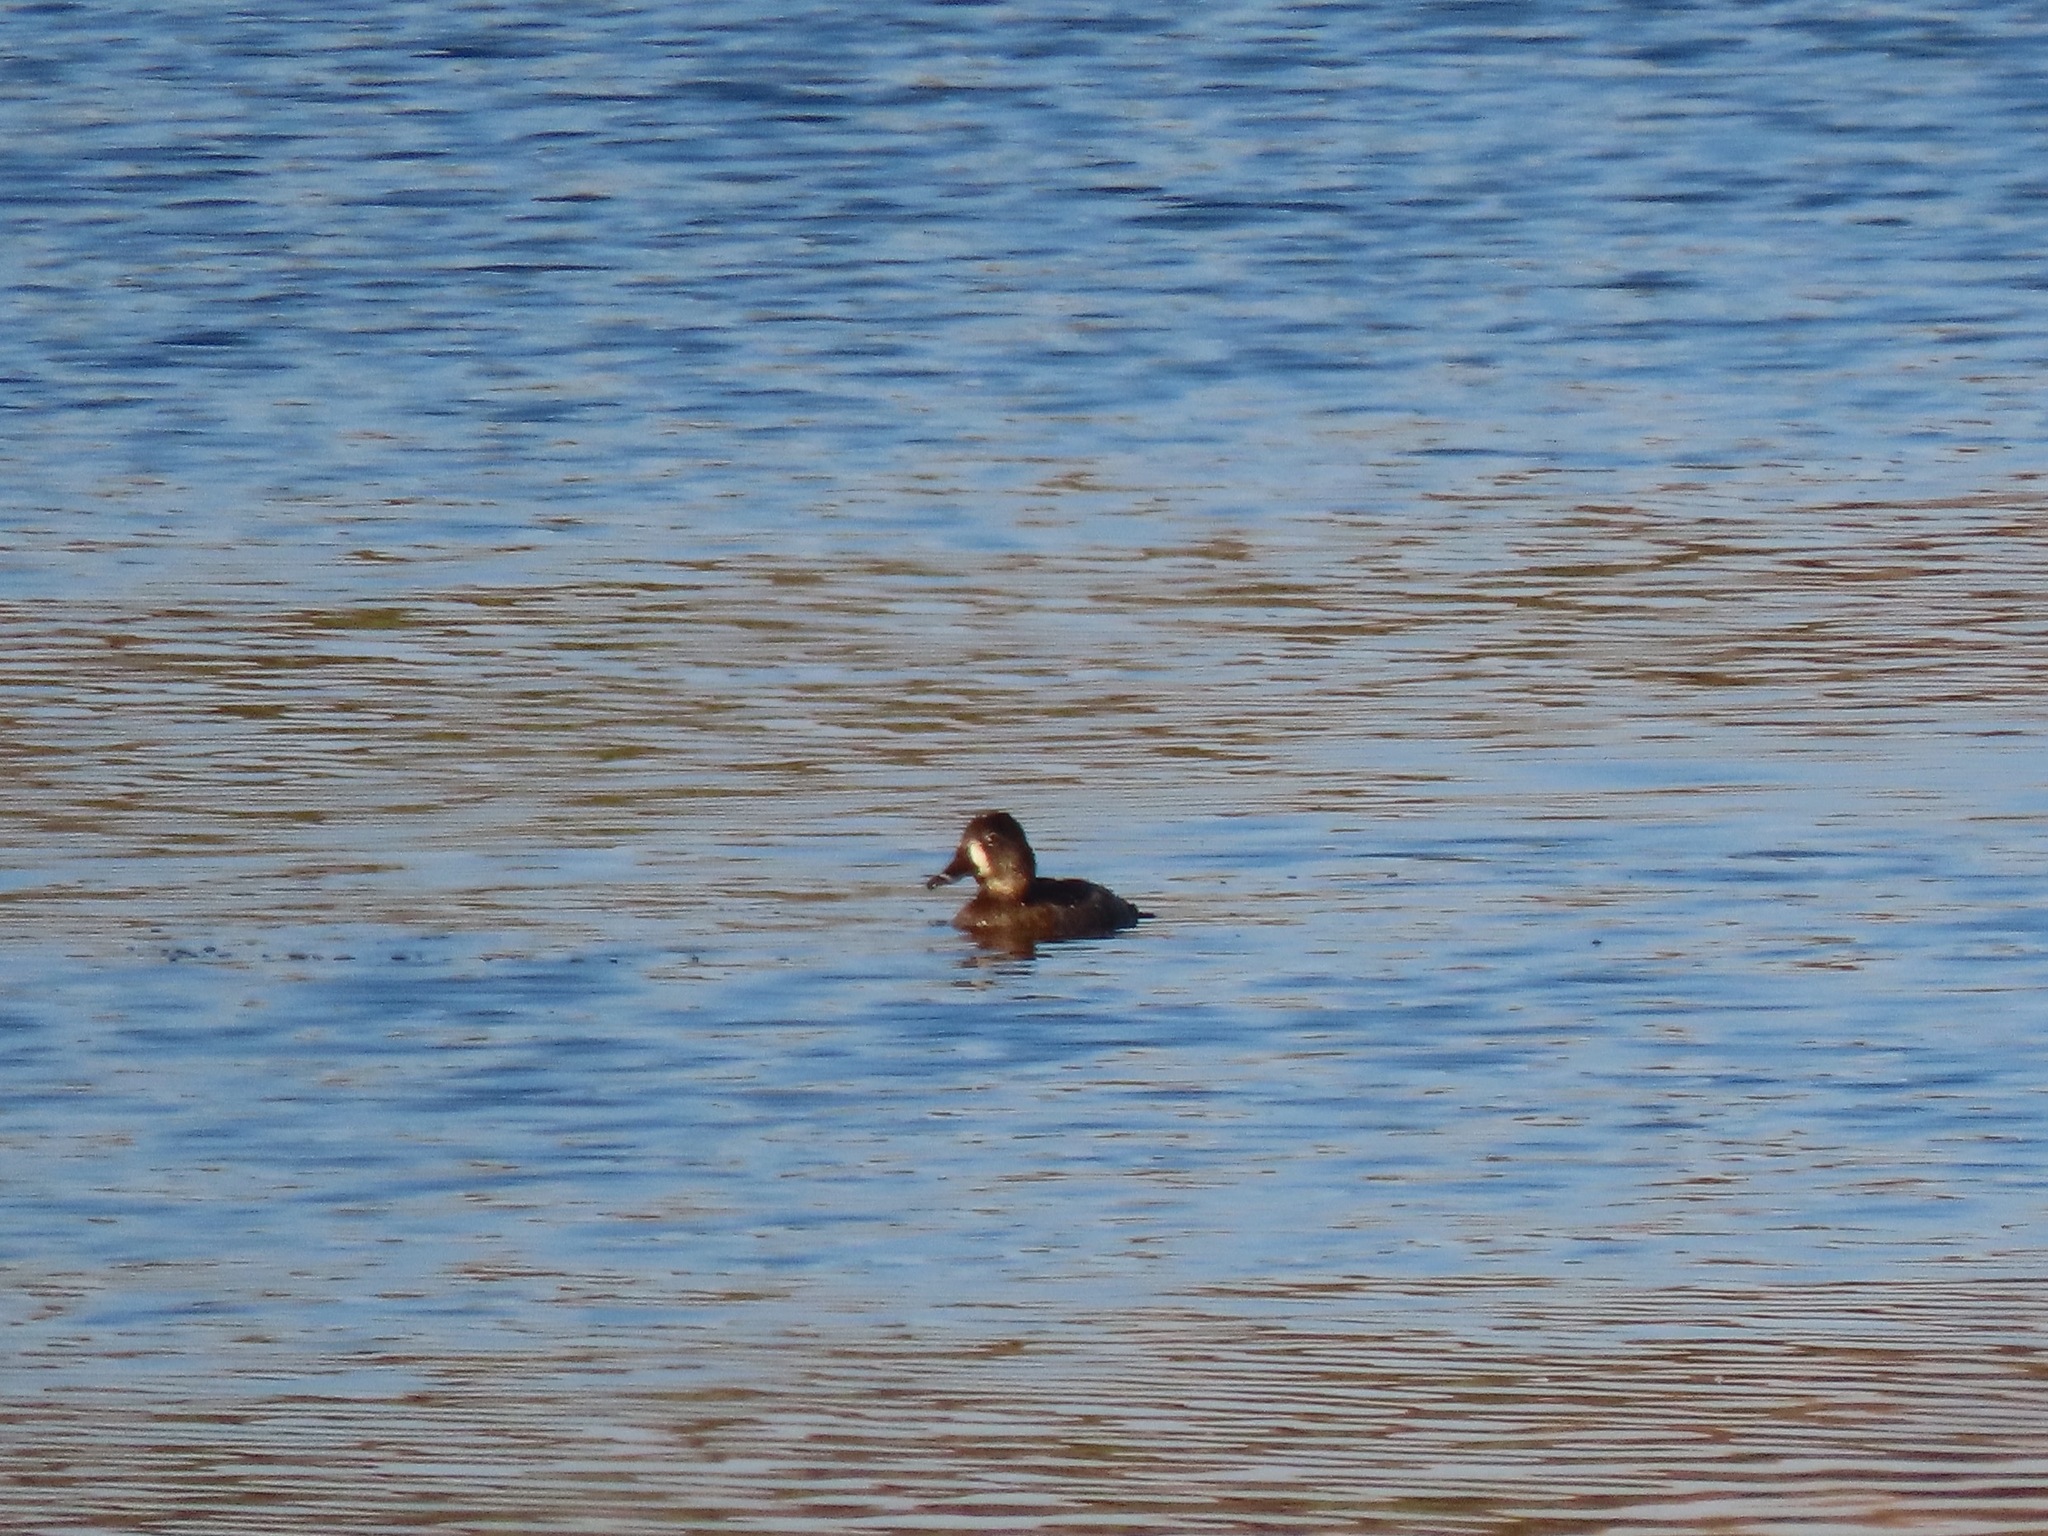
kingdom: Animalia
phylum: Chordata
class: Aves
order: Anseriformes
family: Anatidae
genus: Aythya
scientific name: Aythya collaris
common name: Ring-necked duck
